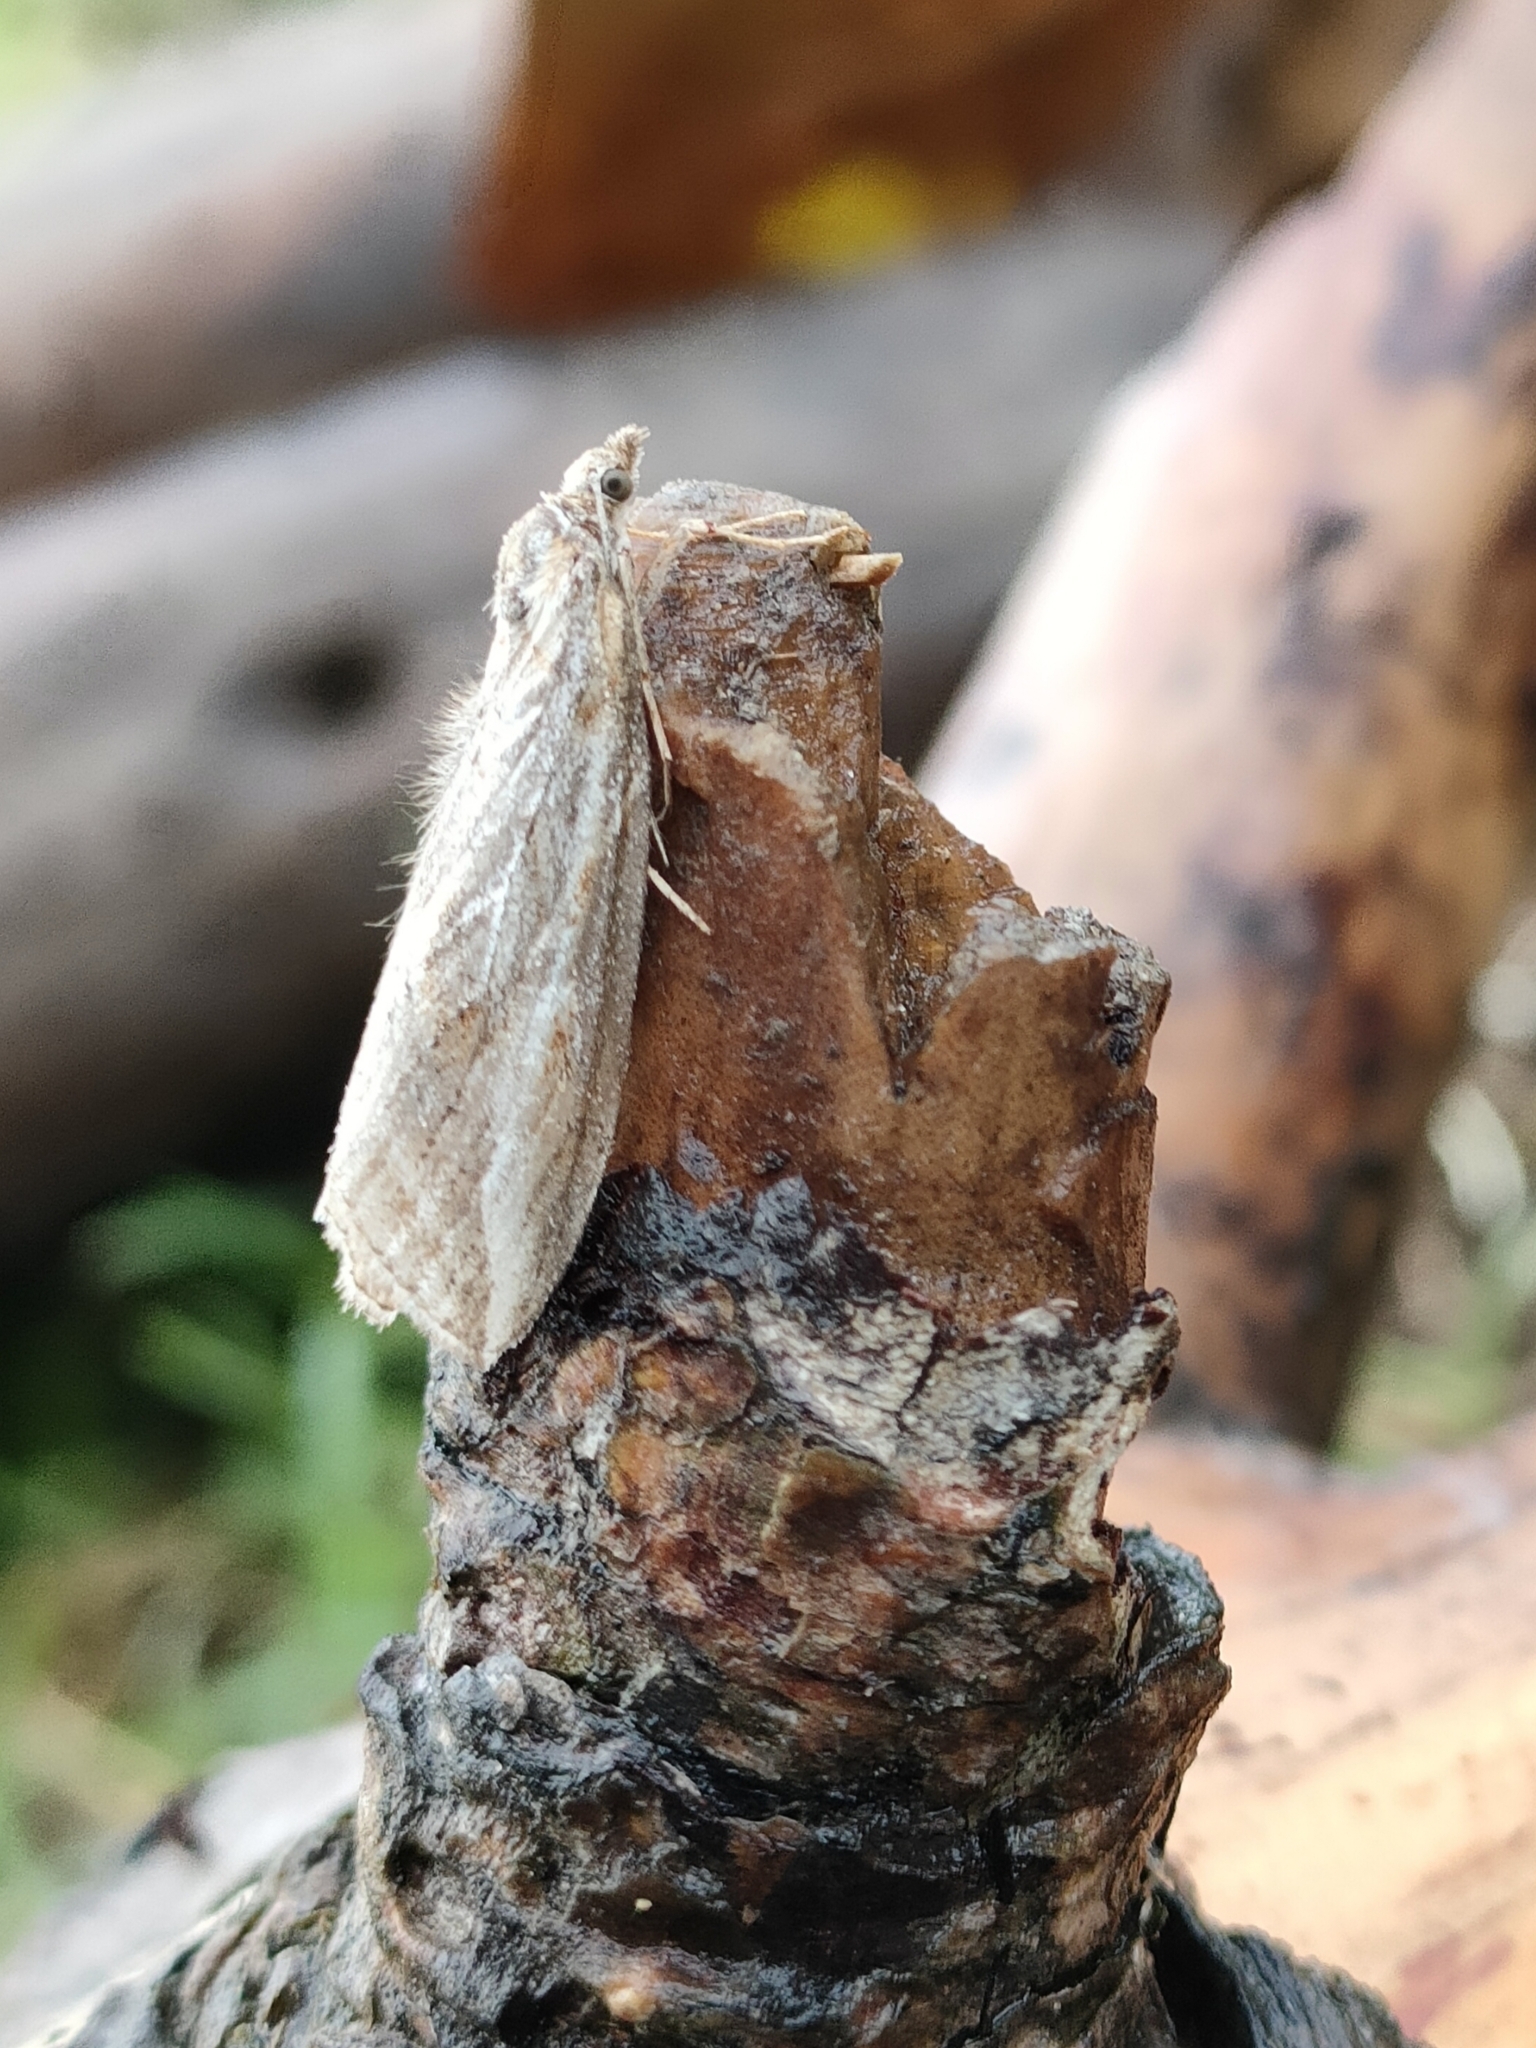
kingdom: Animalia
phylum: Arthropoda
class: Insecta
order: Lepidoptera
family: Geometridae
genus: Chesias
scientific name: Chesias legatella
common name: Streak
